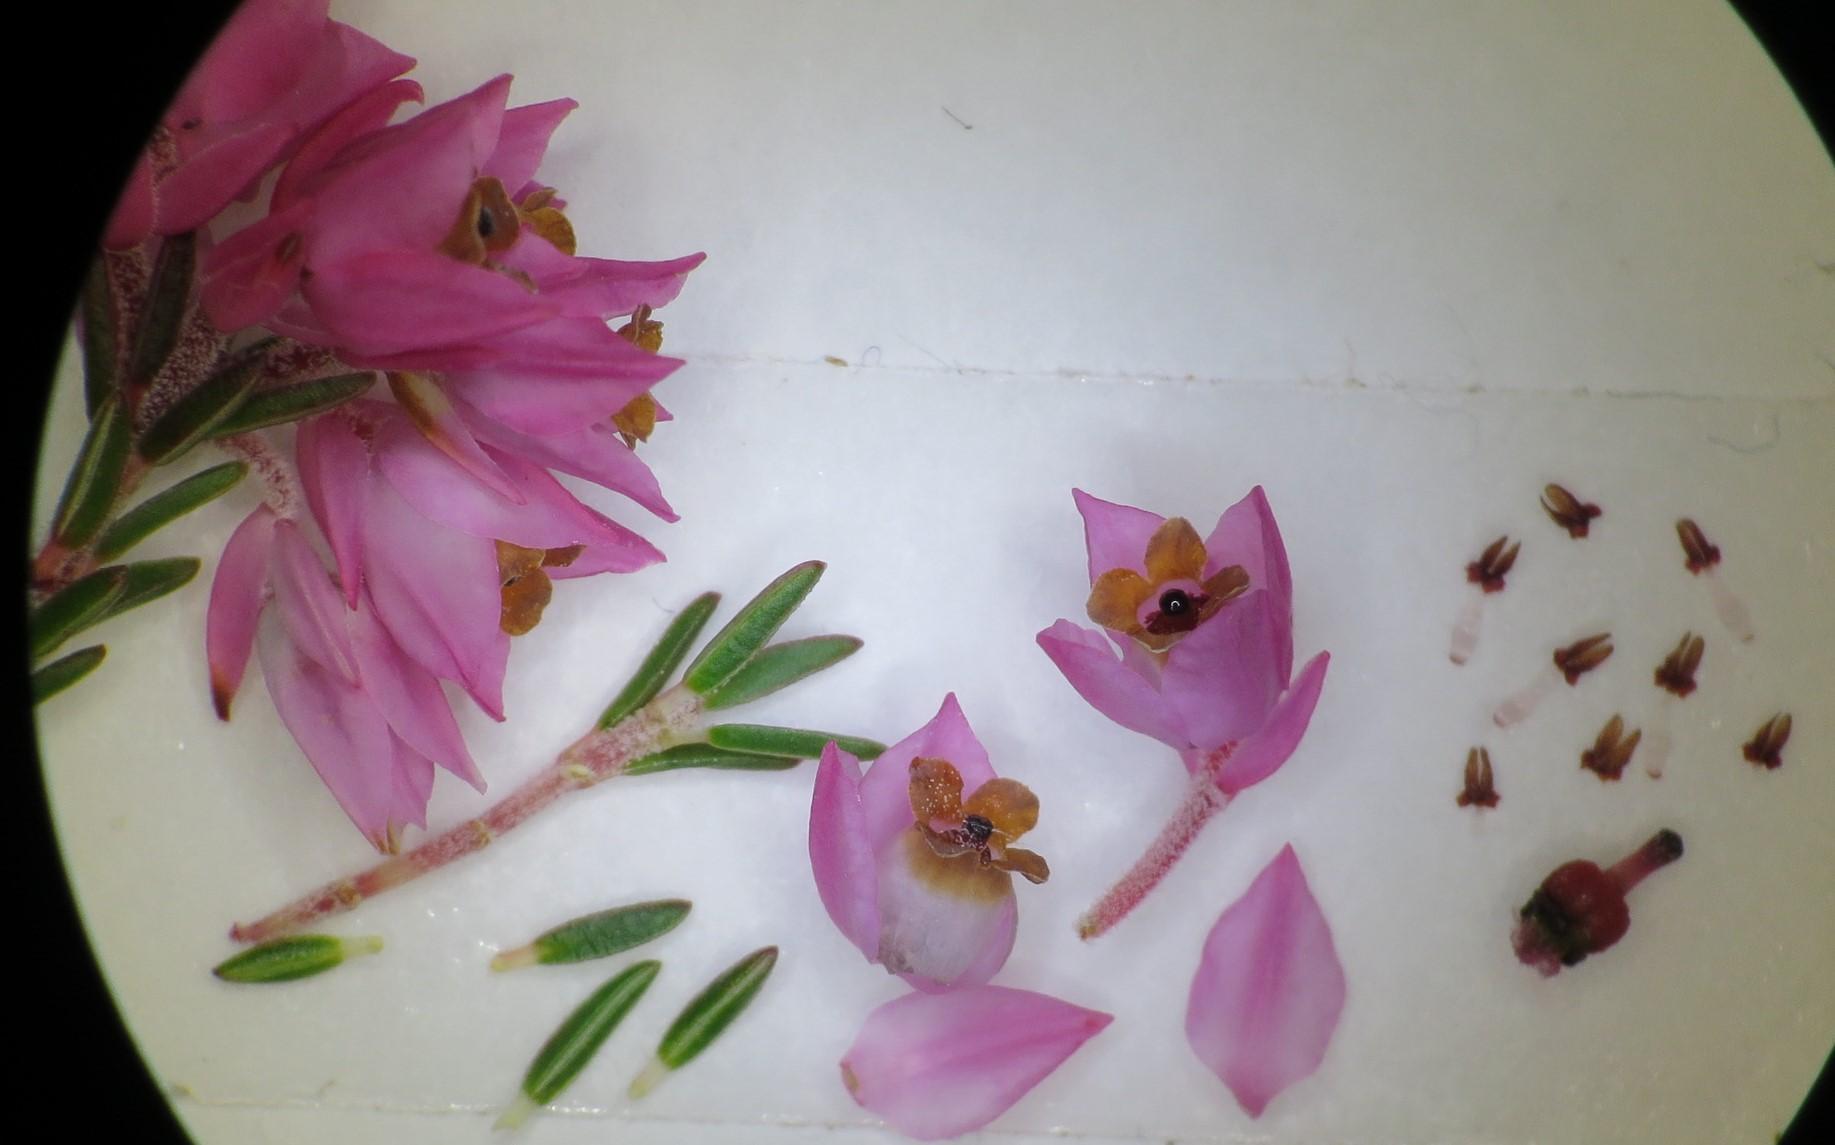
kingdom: Plantae
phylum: Tracheophyta
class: Magnoliopsida
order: Ericales
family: Ericaceae
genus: Erica
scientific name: Erica plumigera
